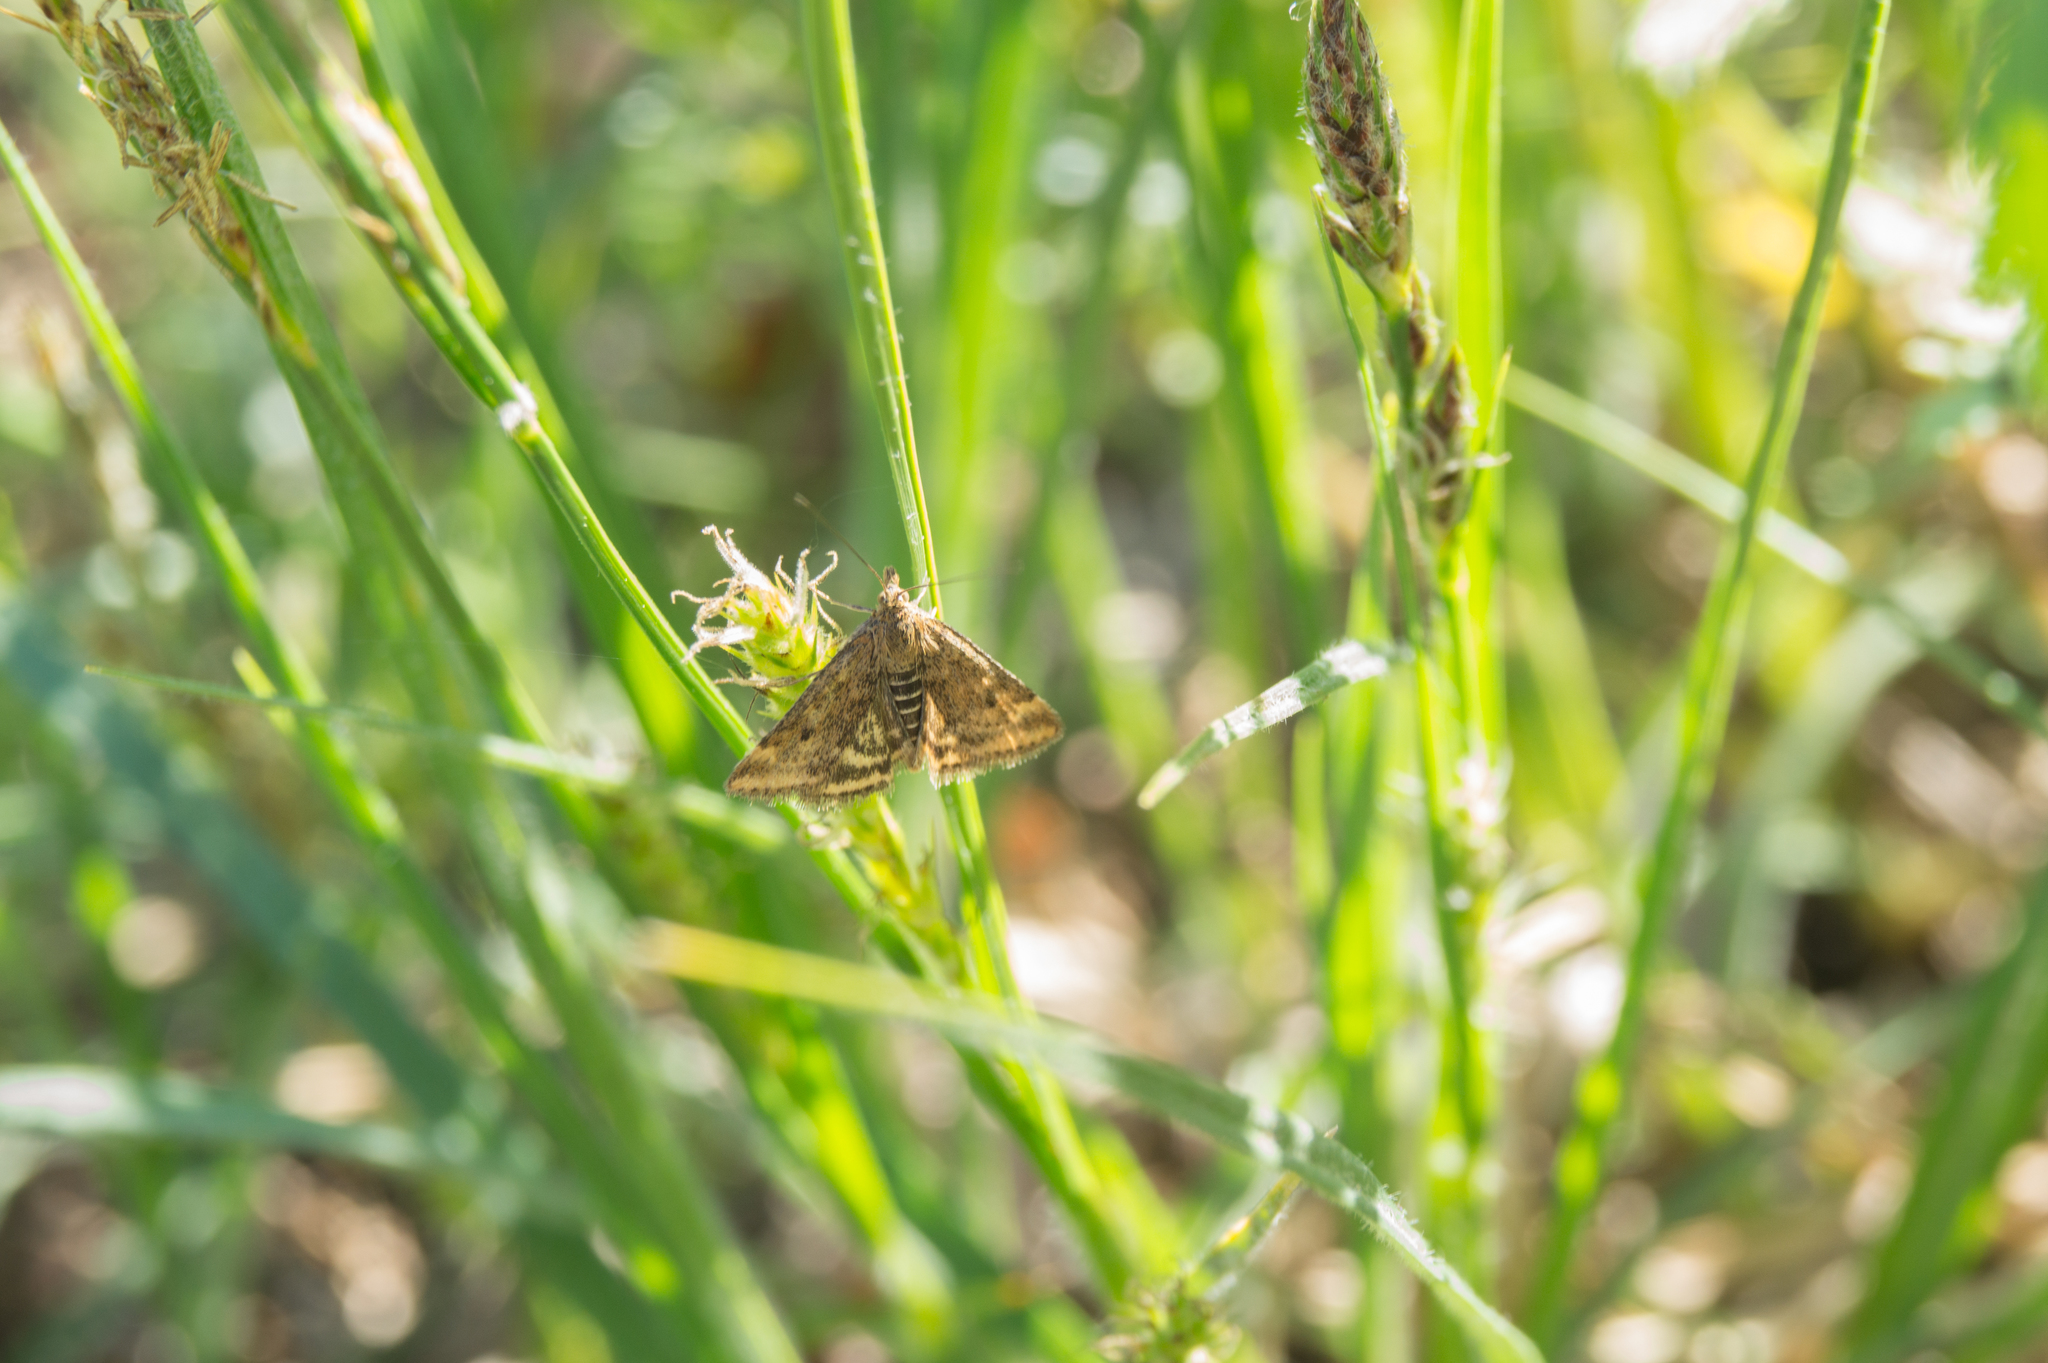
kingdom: Animalia
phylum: Arthropoda
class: Insecta
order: Lepidoptera
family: Crambidae
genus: Pyrausta
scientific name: Pyrausta despicata
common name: Straw-barred pearl
